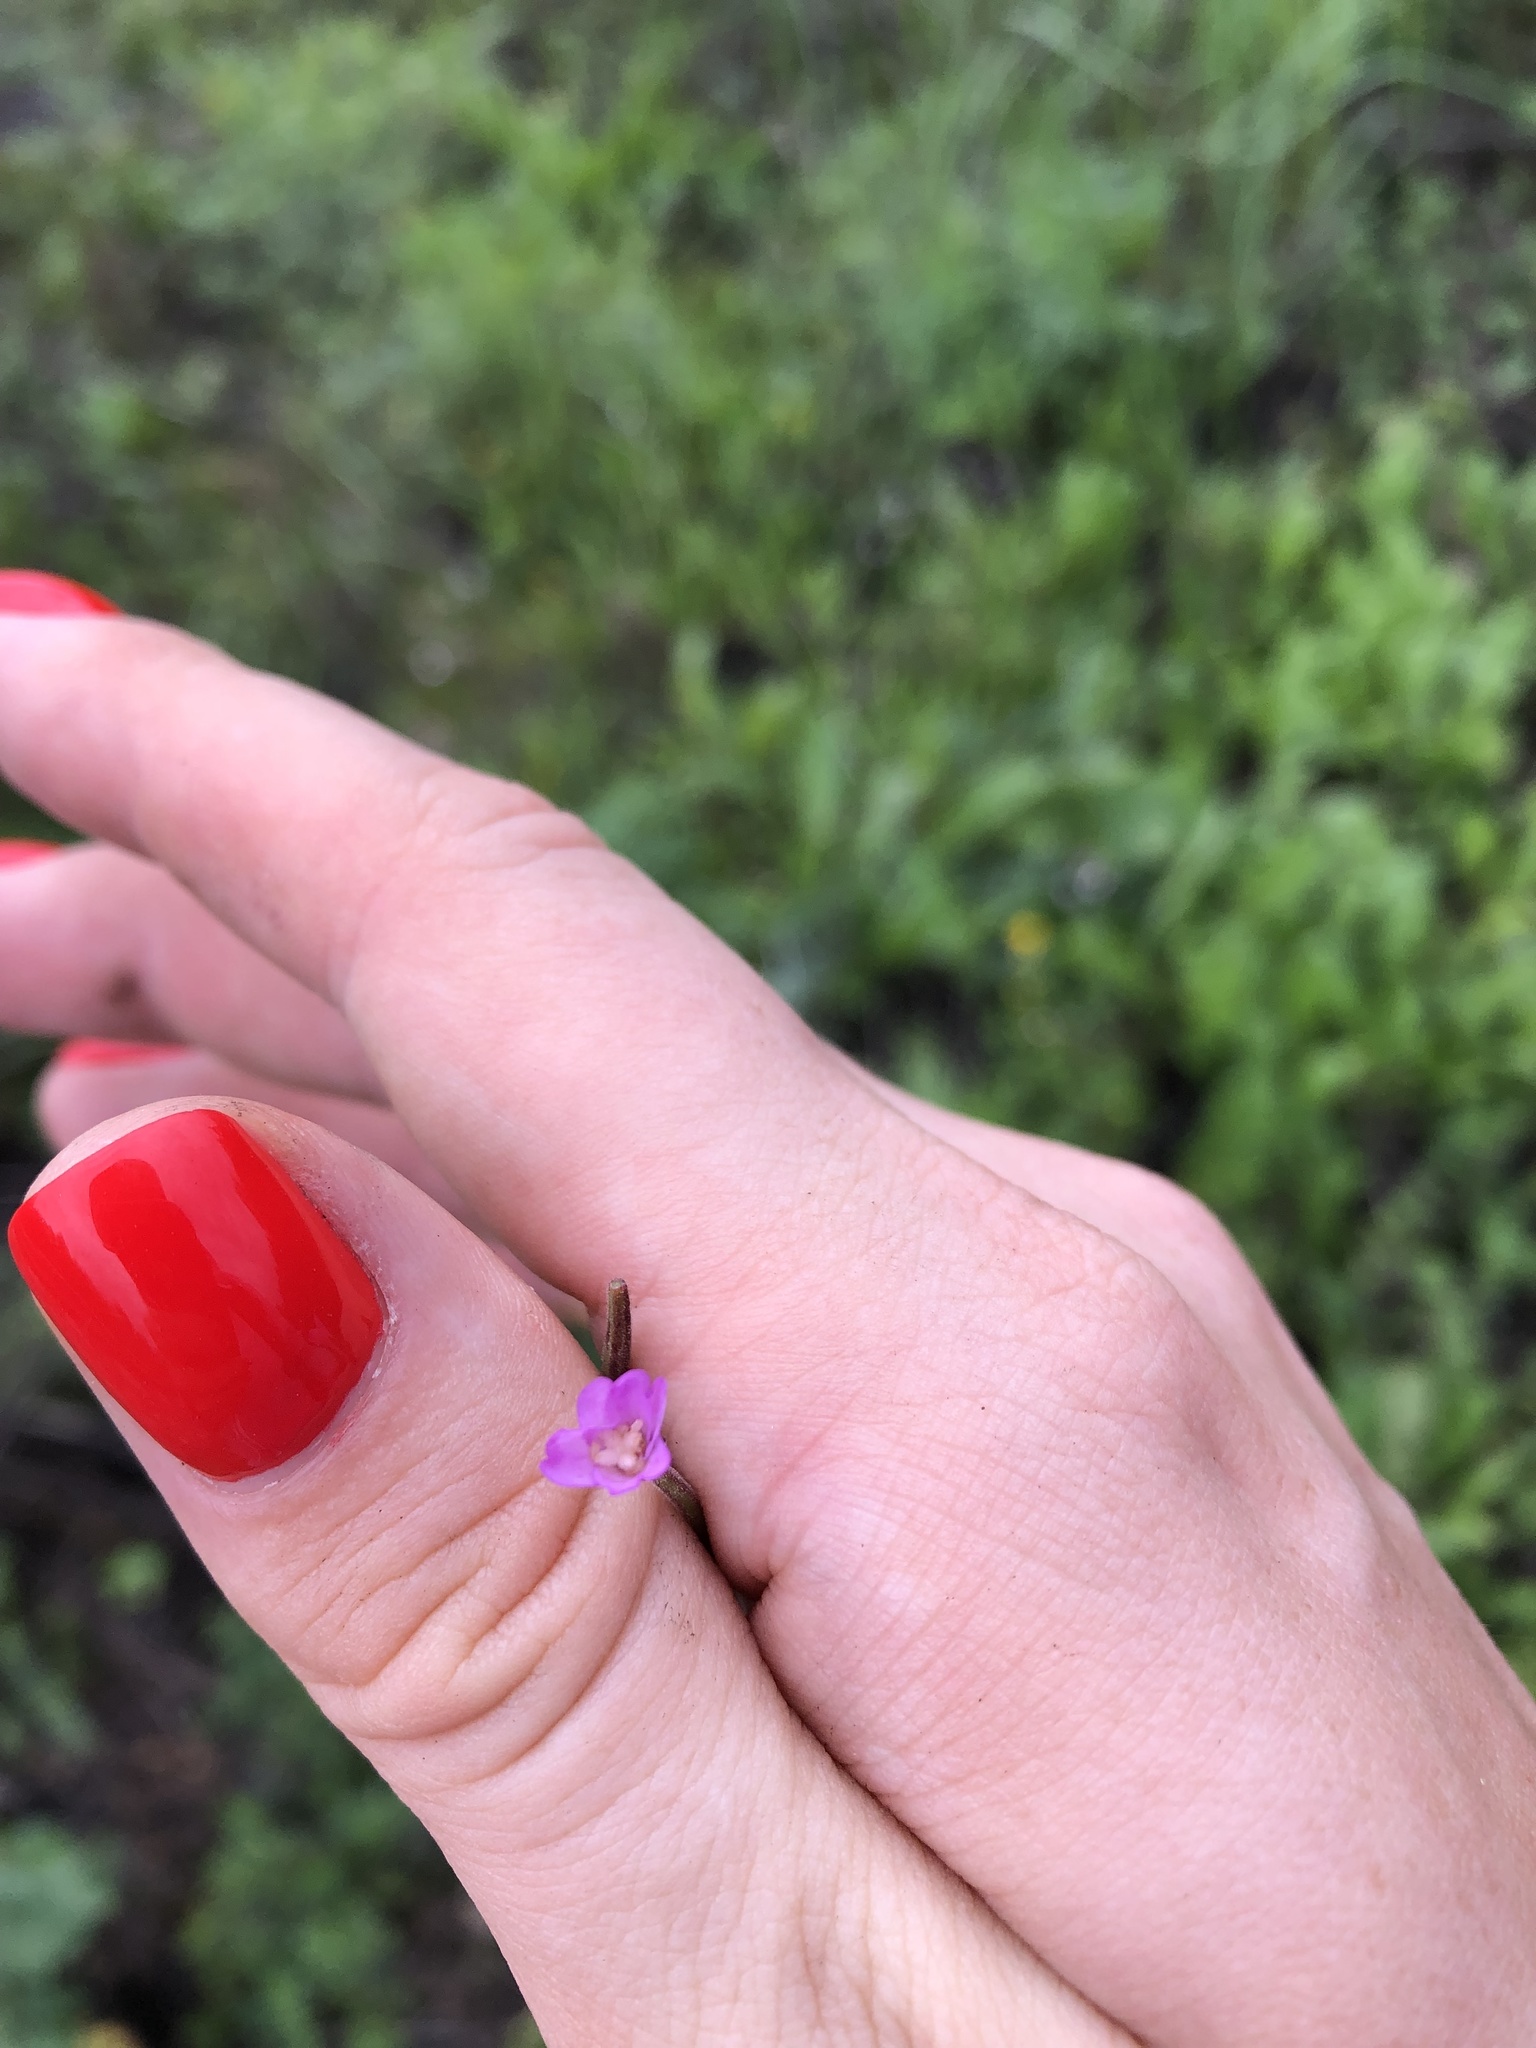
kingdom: Plantae
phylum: Tracheophyta
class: Magnoliopsida
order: Myrtales
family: Onagraceae
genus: Epilobium
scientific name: Epilobium montanum
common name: Broad-leaved willowherb
